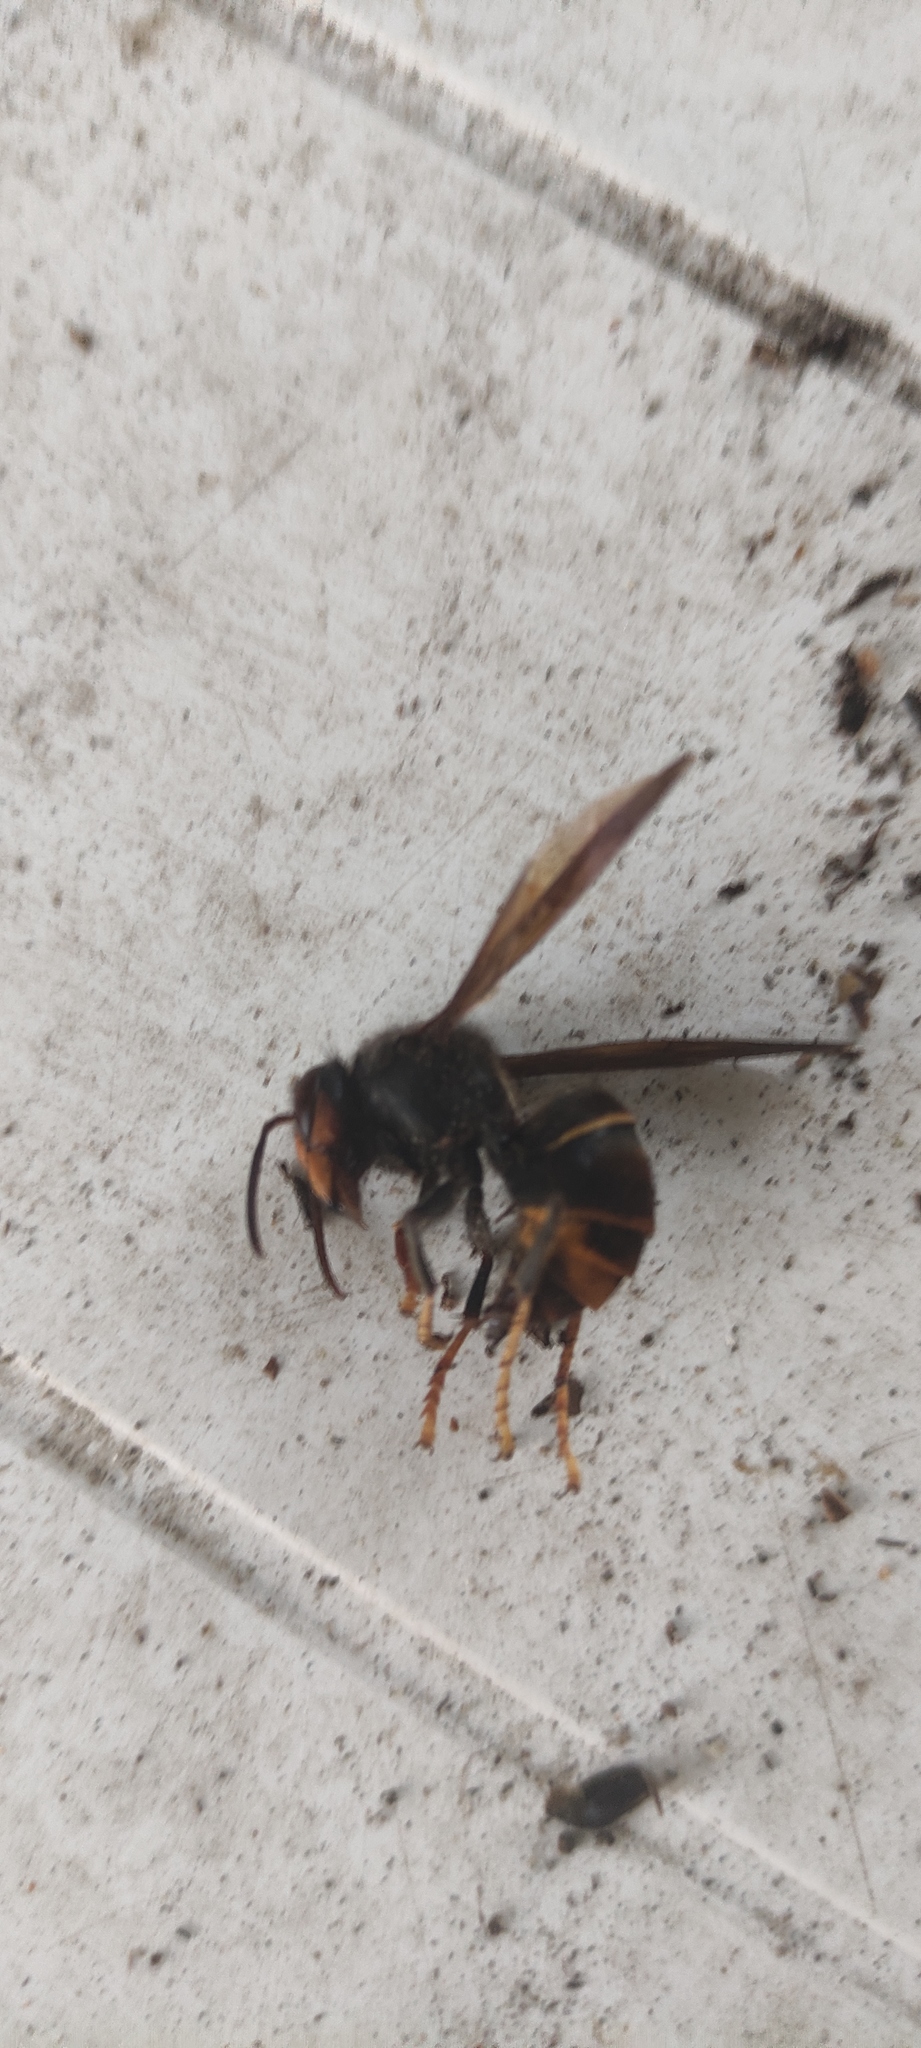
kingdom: Animalia
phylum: Arthropoda
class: Insecta
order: Hymenoptera
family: Vespidae
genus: Vespa
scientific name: Vespa velutina
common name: Asian hornet
